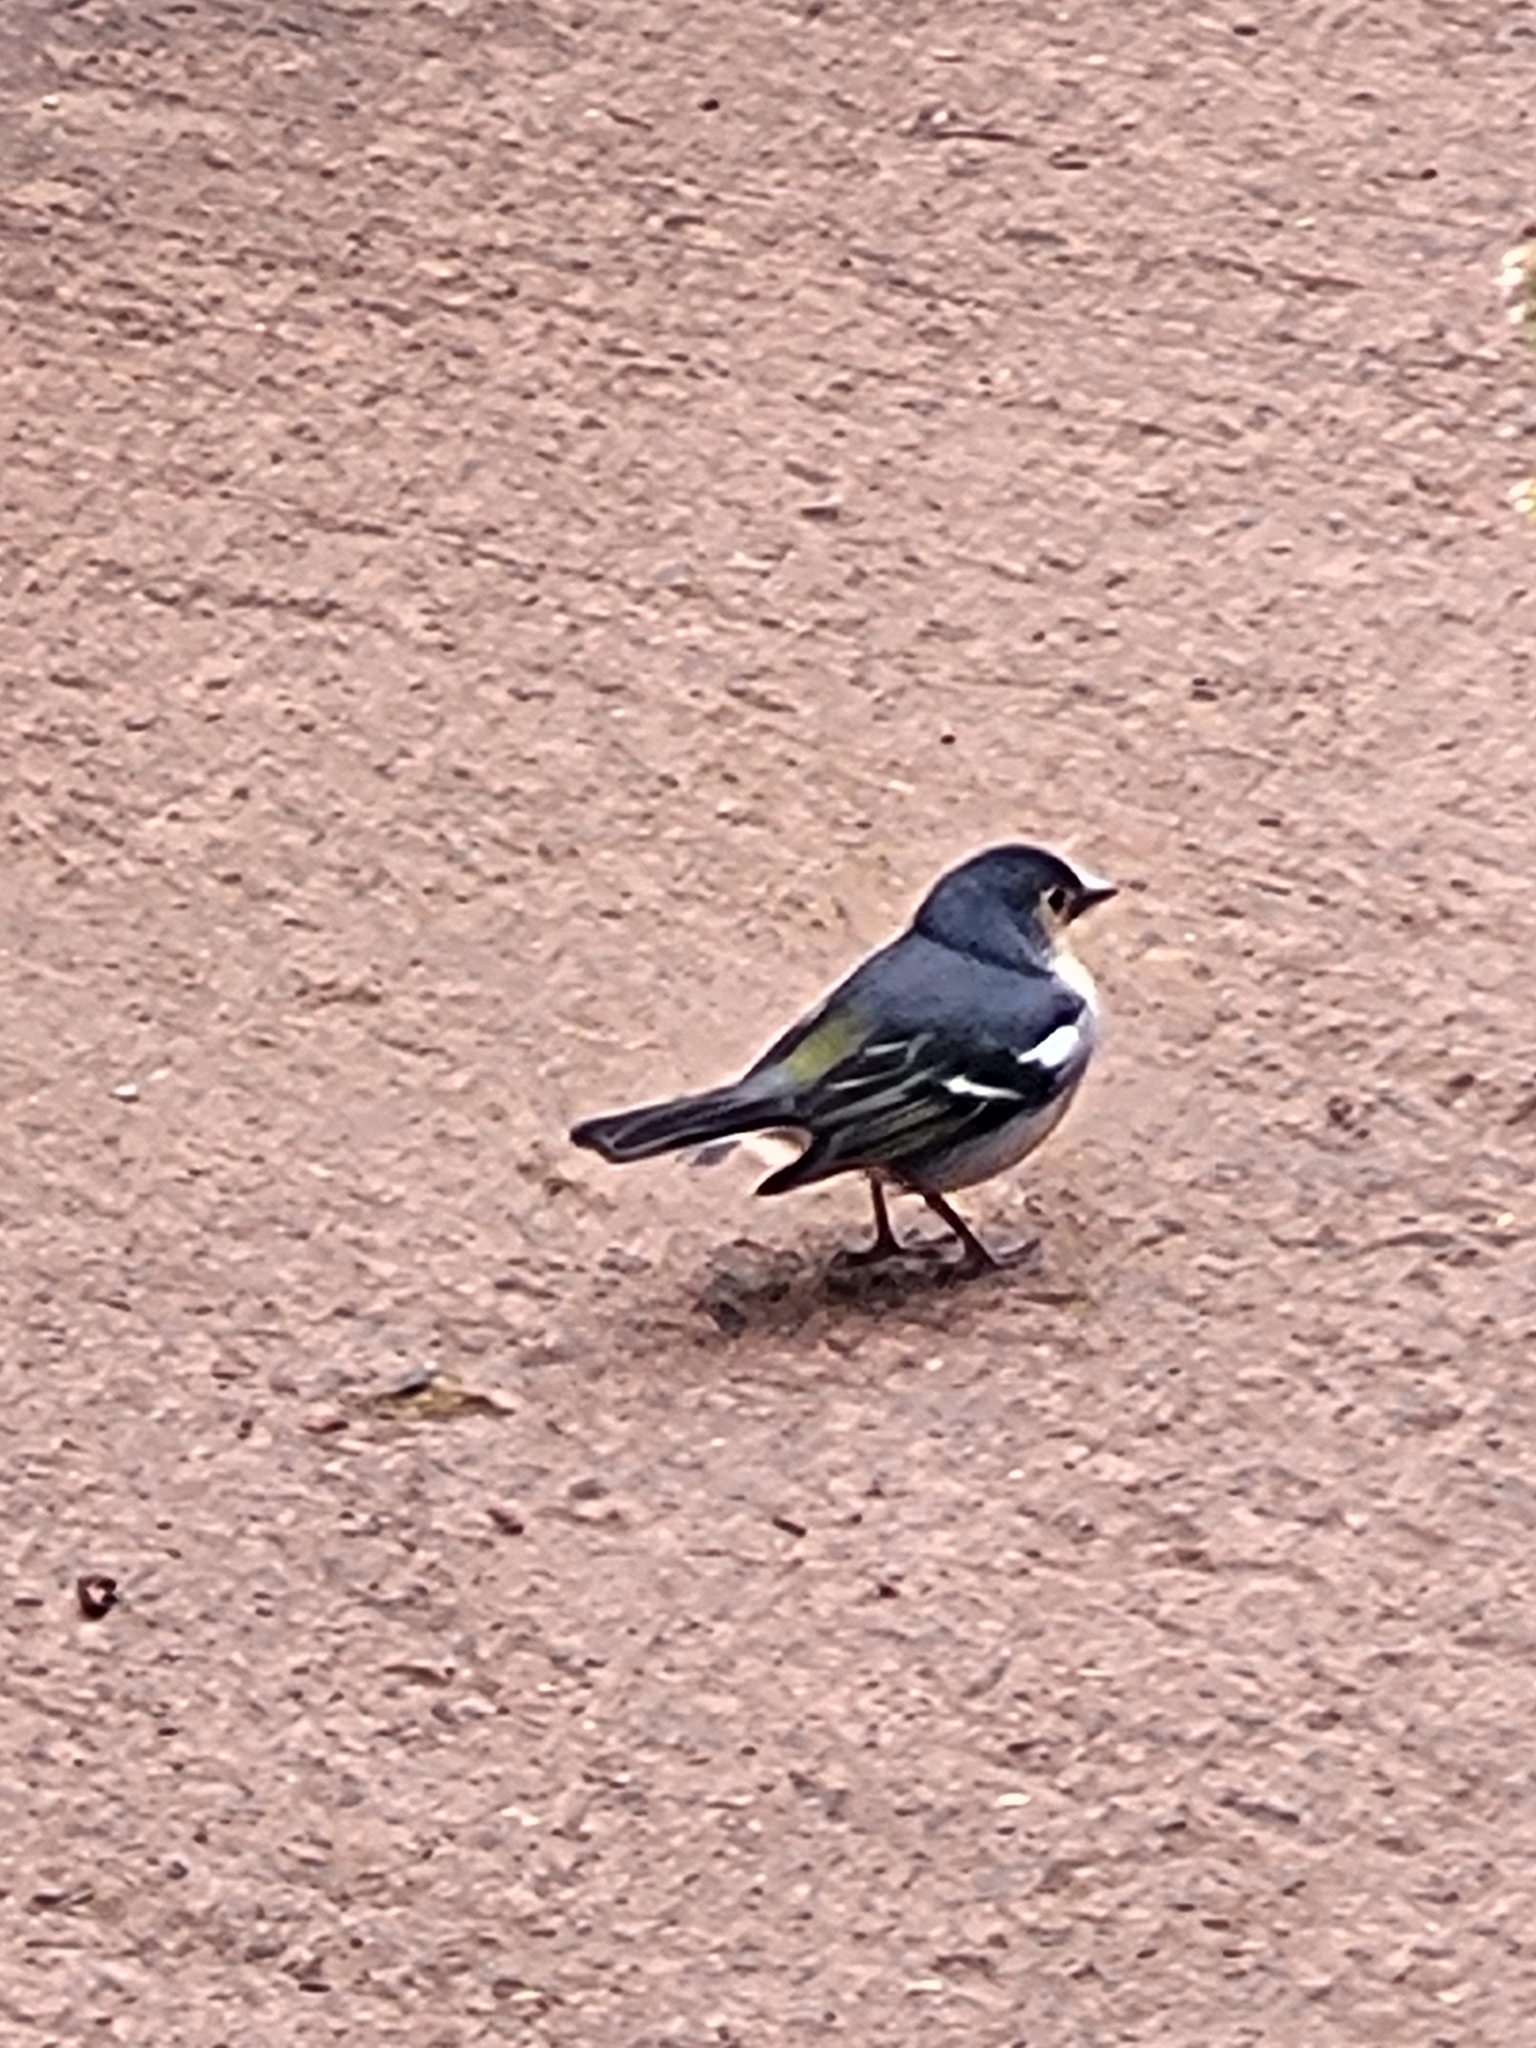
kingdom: Animalia
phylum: Chordata
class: Aves
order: Passeriformes
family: Fringillidae
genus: Fringilla
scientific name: Fringilla canariensis
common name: Canary islands chaffinch
